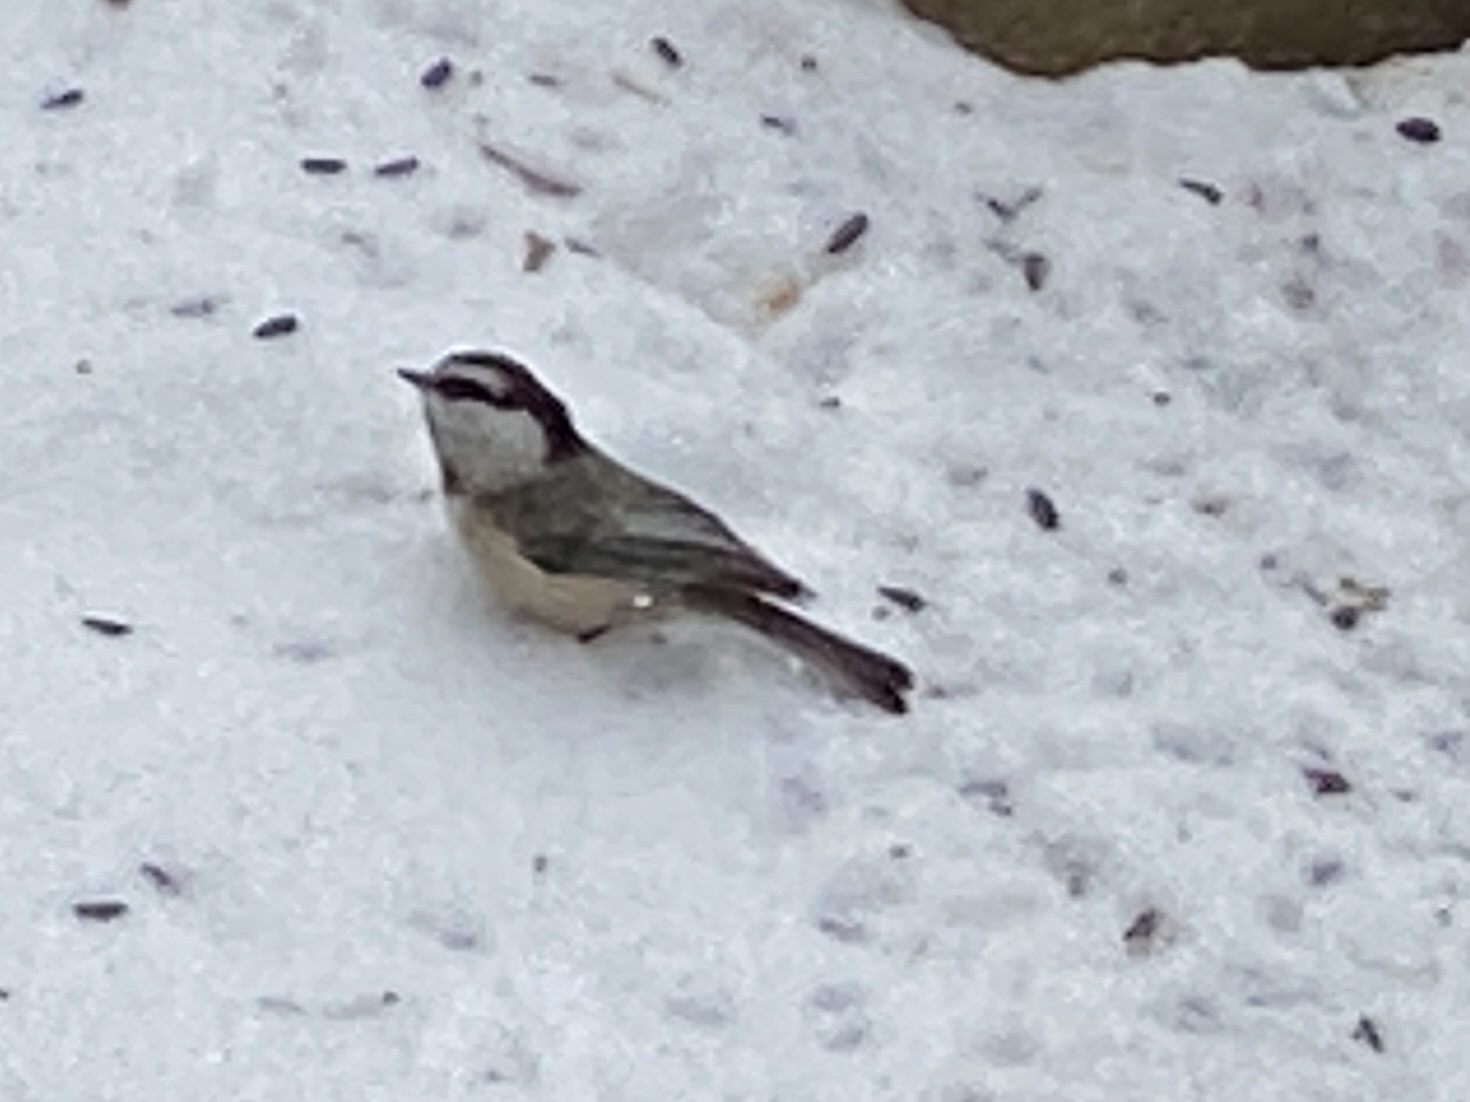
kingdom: Animalia
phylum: Chordata
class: Aves
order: Passeriformes
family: Paridae
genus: Poecile
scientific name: Poecile gambeli
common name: Mountain chickadee
